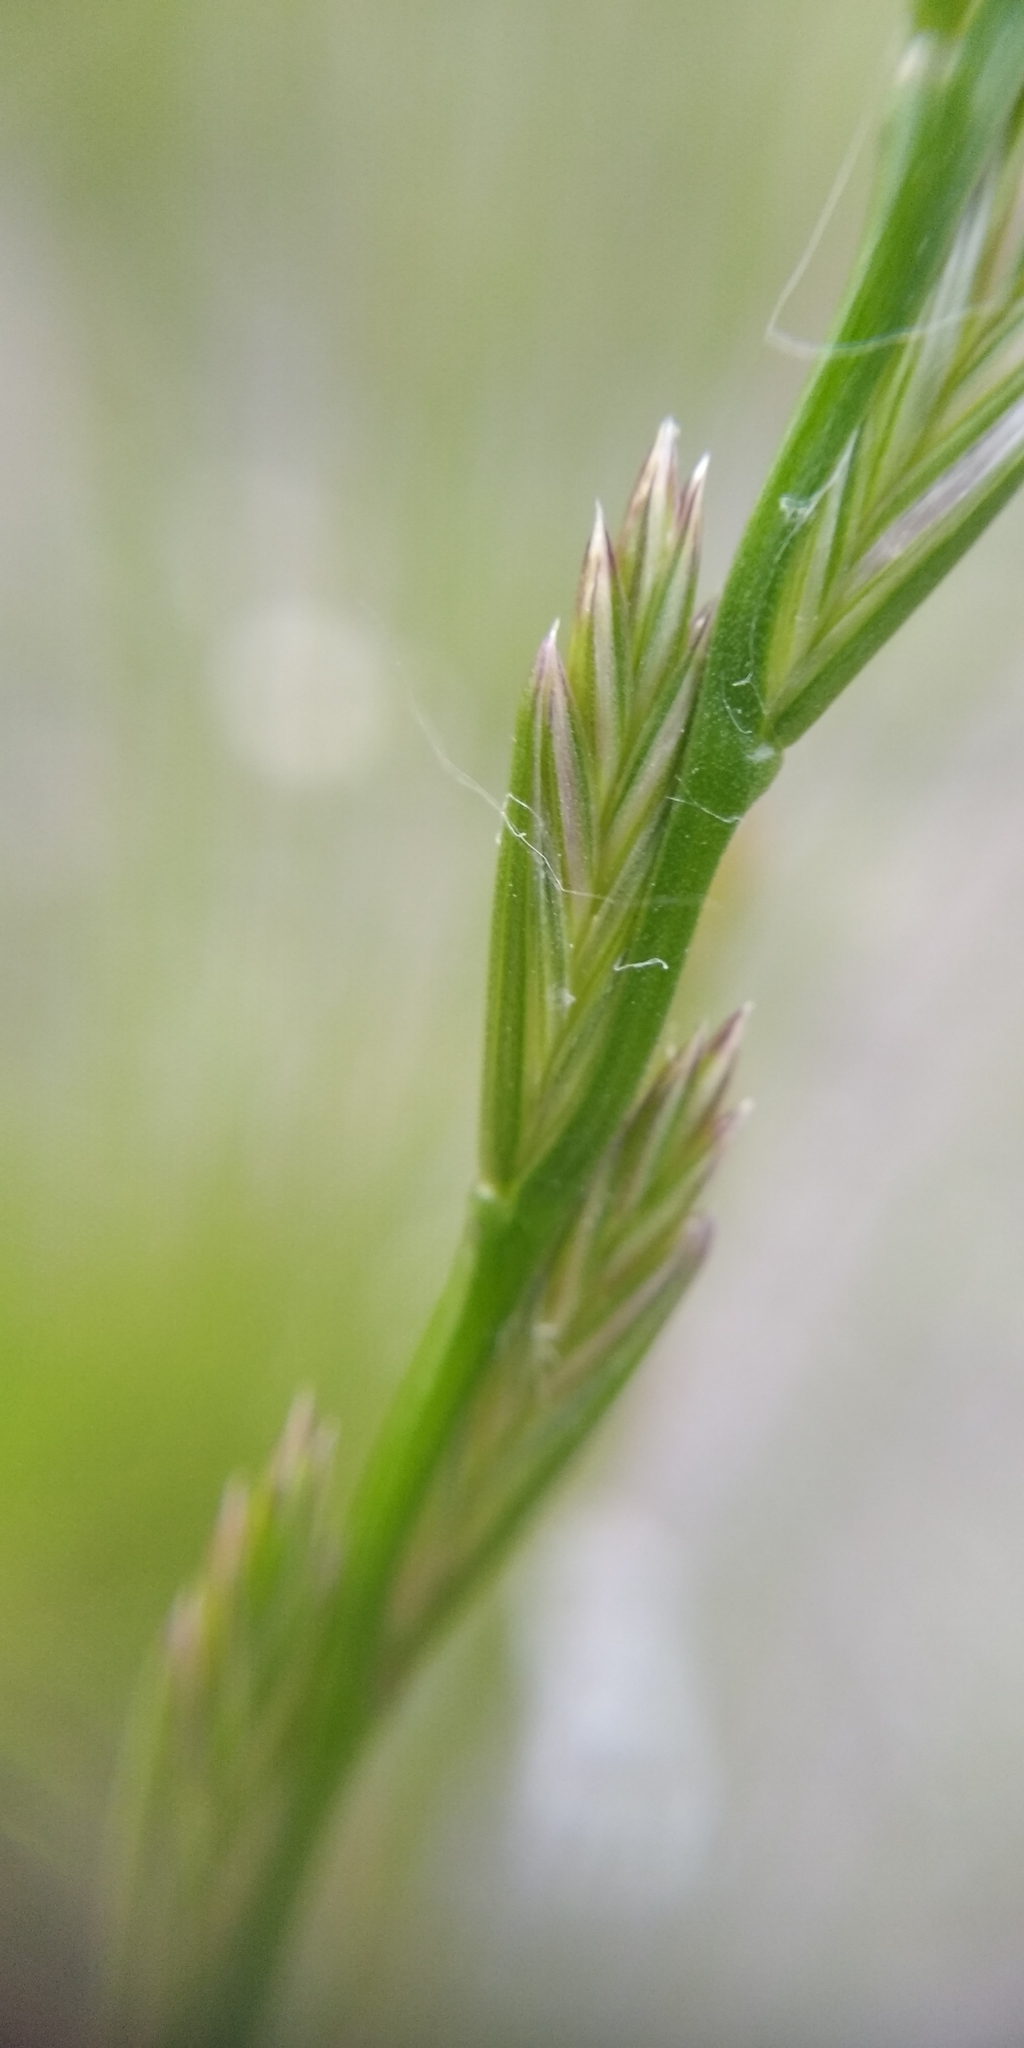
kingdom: Plantae
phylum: Tracheophyta
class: Liliopsida
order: Poales
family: Poaceae
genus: Lolium
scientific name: Lolium perenne
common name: Perennial ryegrass
